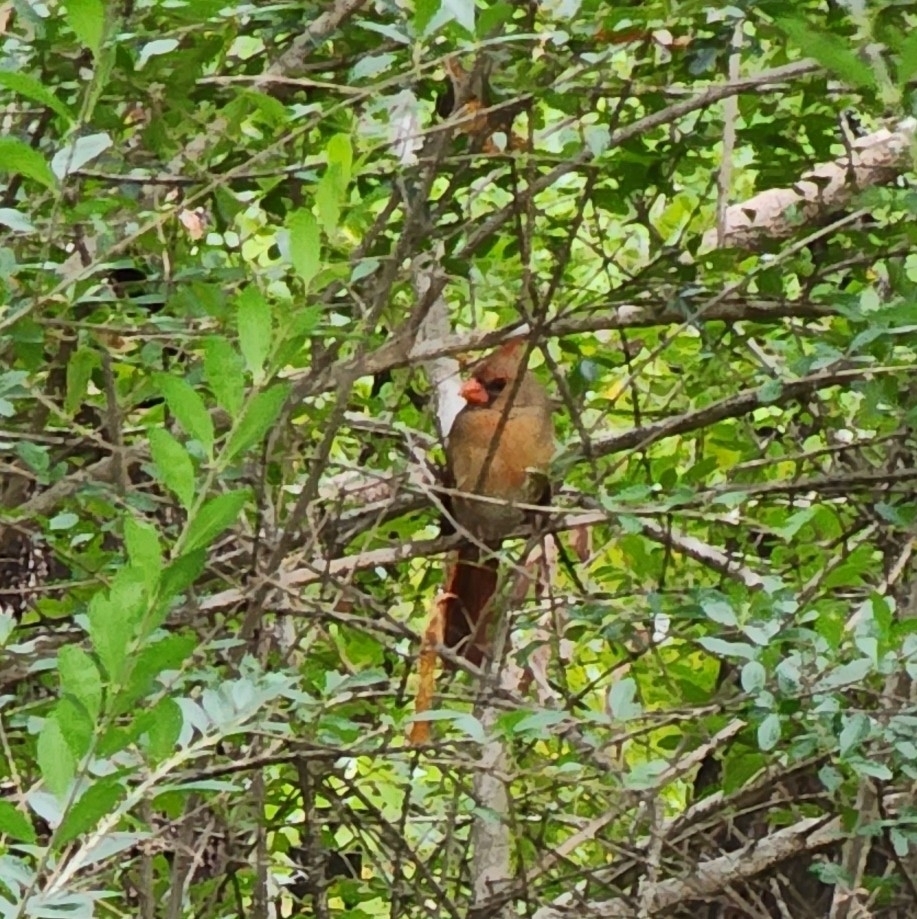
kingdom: Animalia
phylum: Chordata
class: Aves
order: Passeriformes
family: Cardinalidae
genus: Cardinalis
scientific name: Cardinalis cardinalis
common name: Northern cardinal
